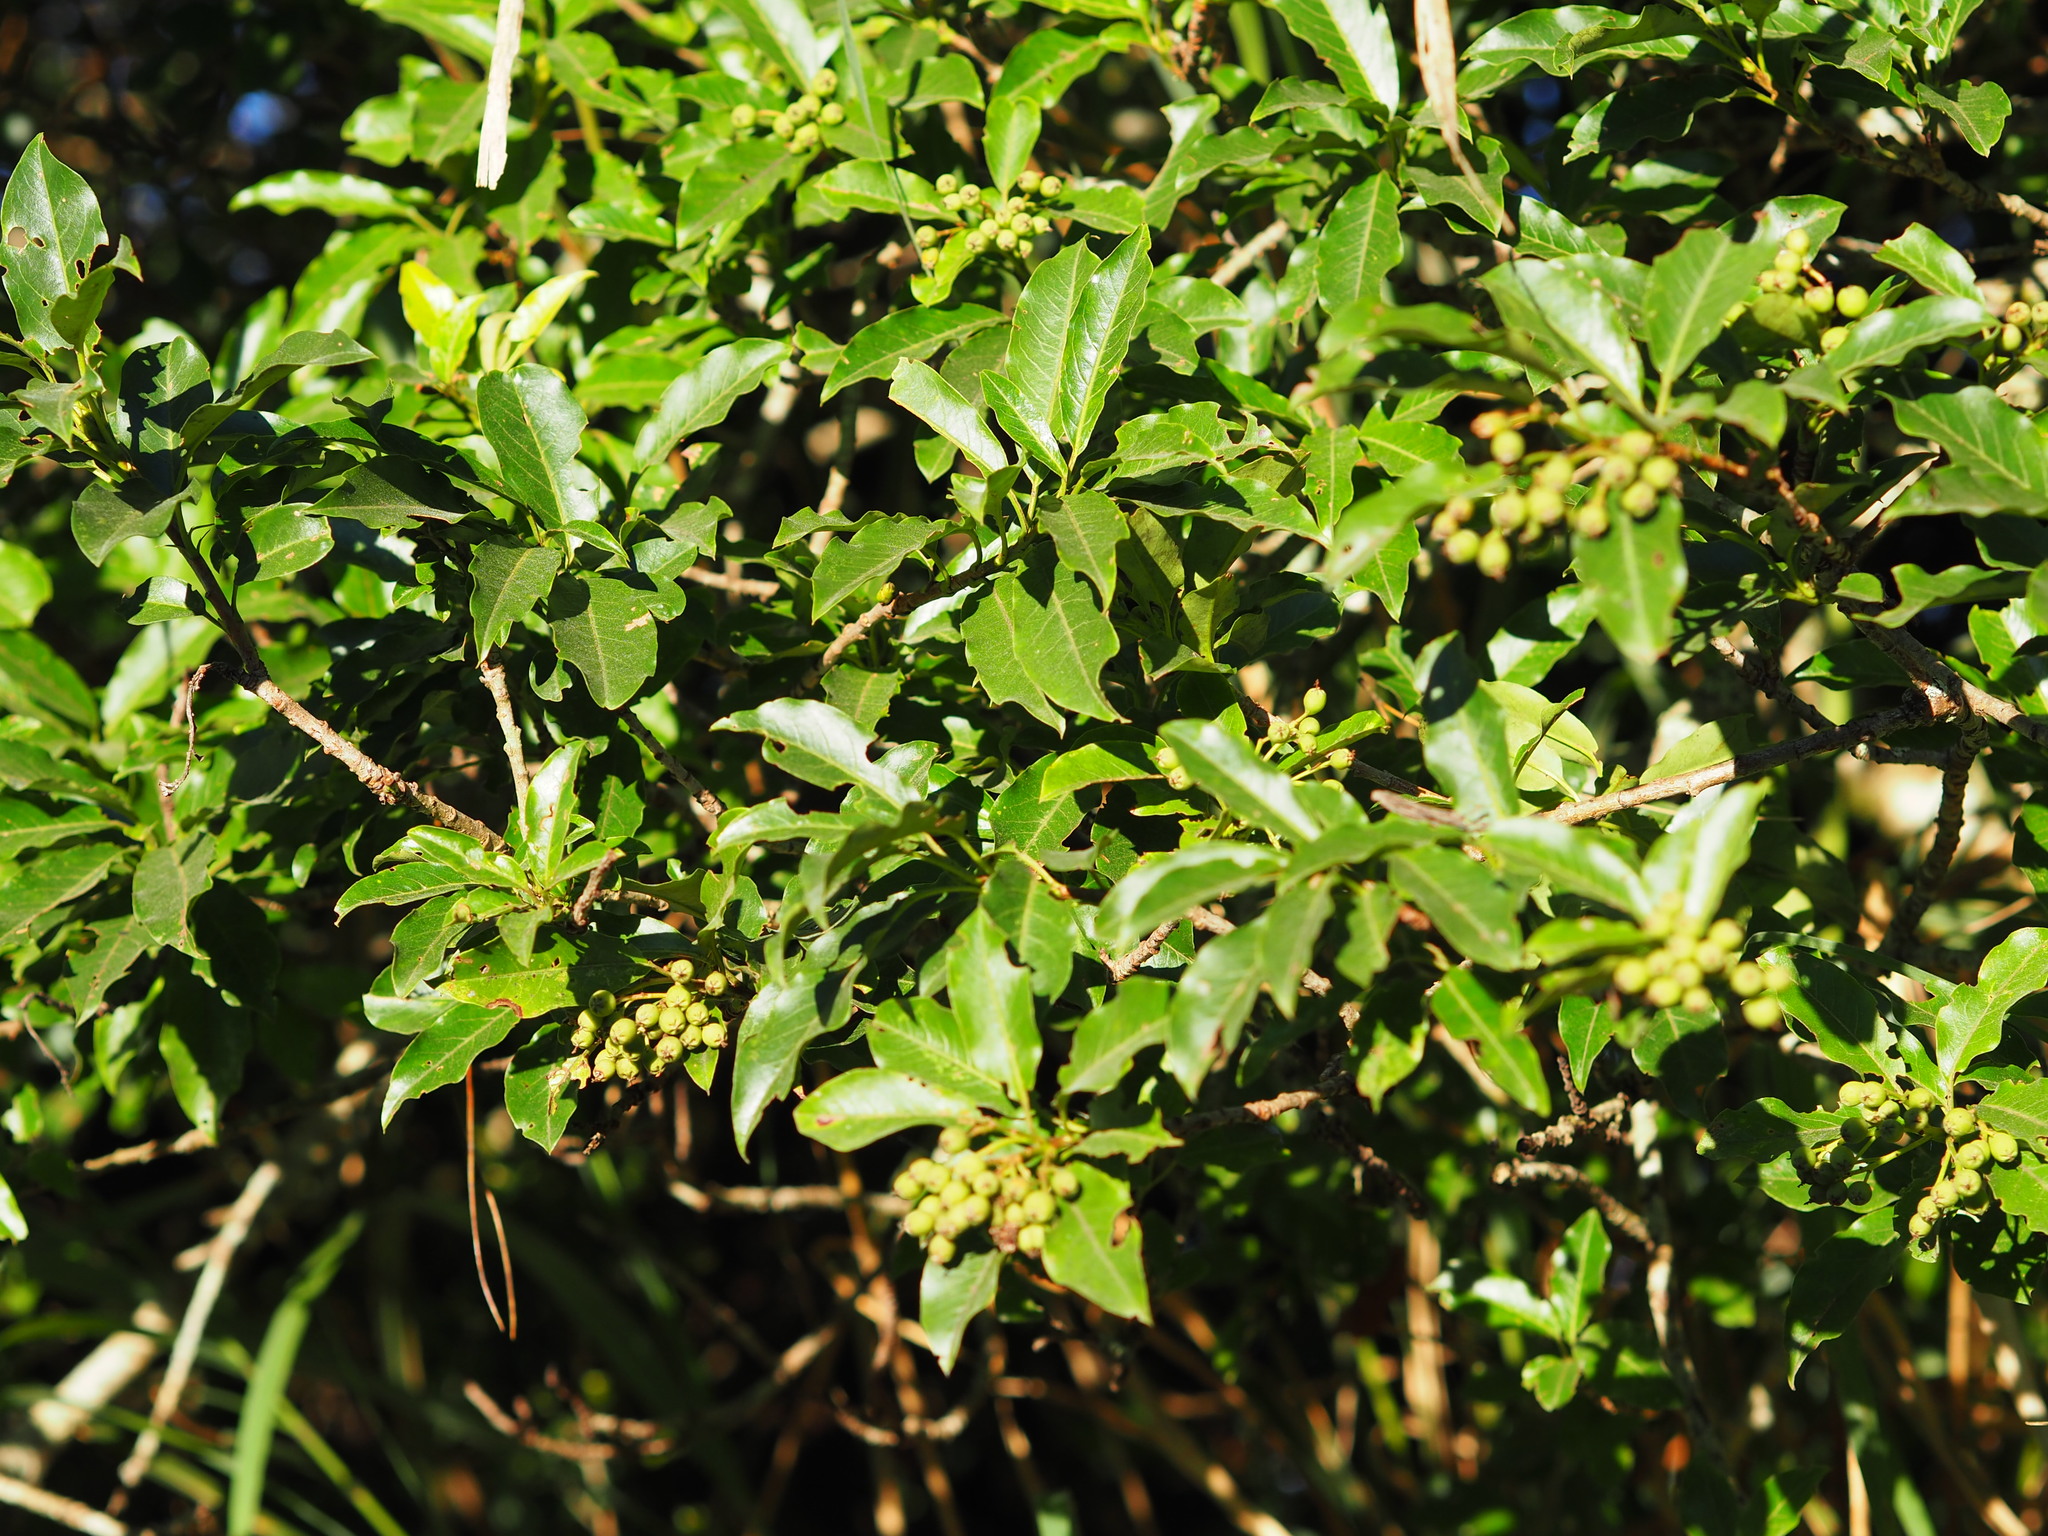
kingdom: Plantae
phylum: Tracheophyta
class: Magnoliopsida
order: Rosales
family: Rosaceae
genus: Stranvaesia
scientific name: Stranvaesia davidiana
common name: Chinese photinia
